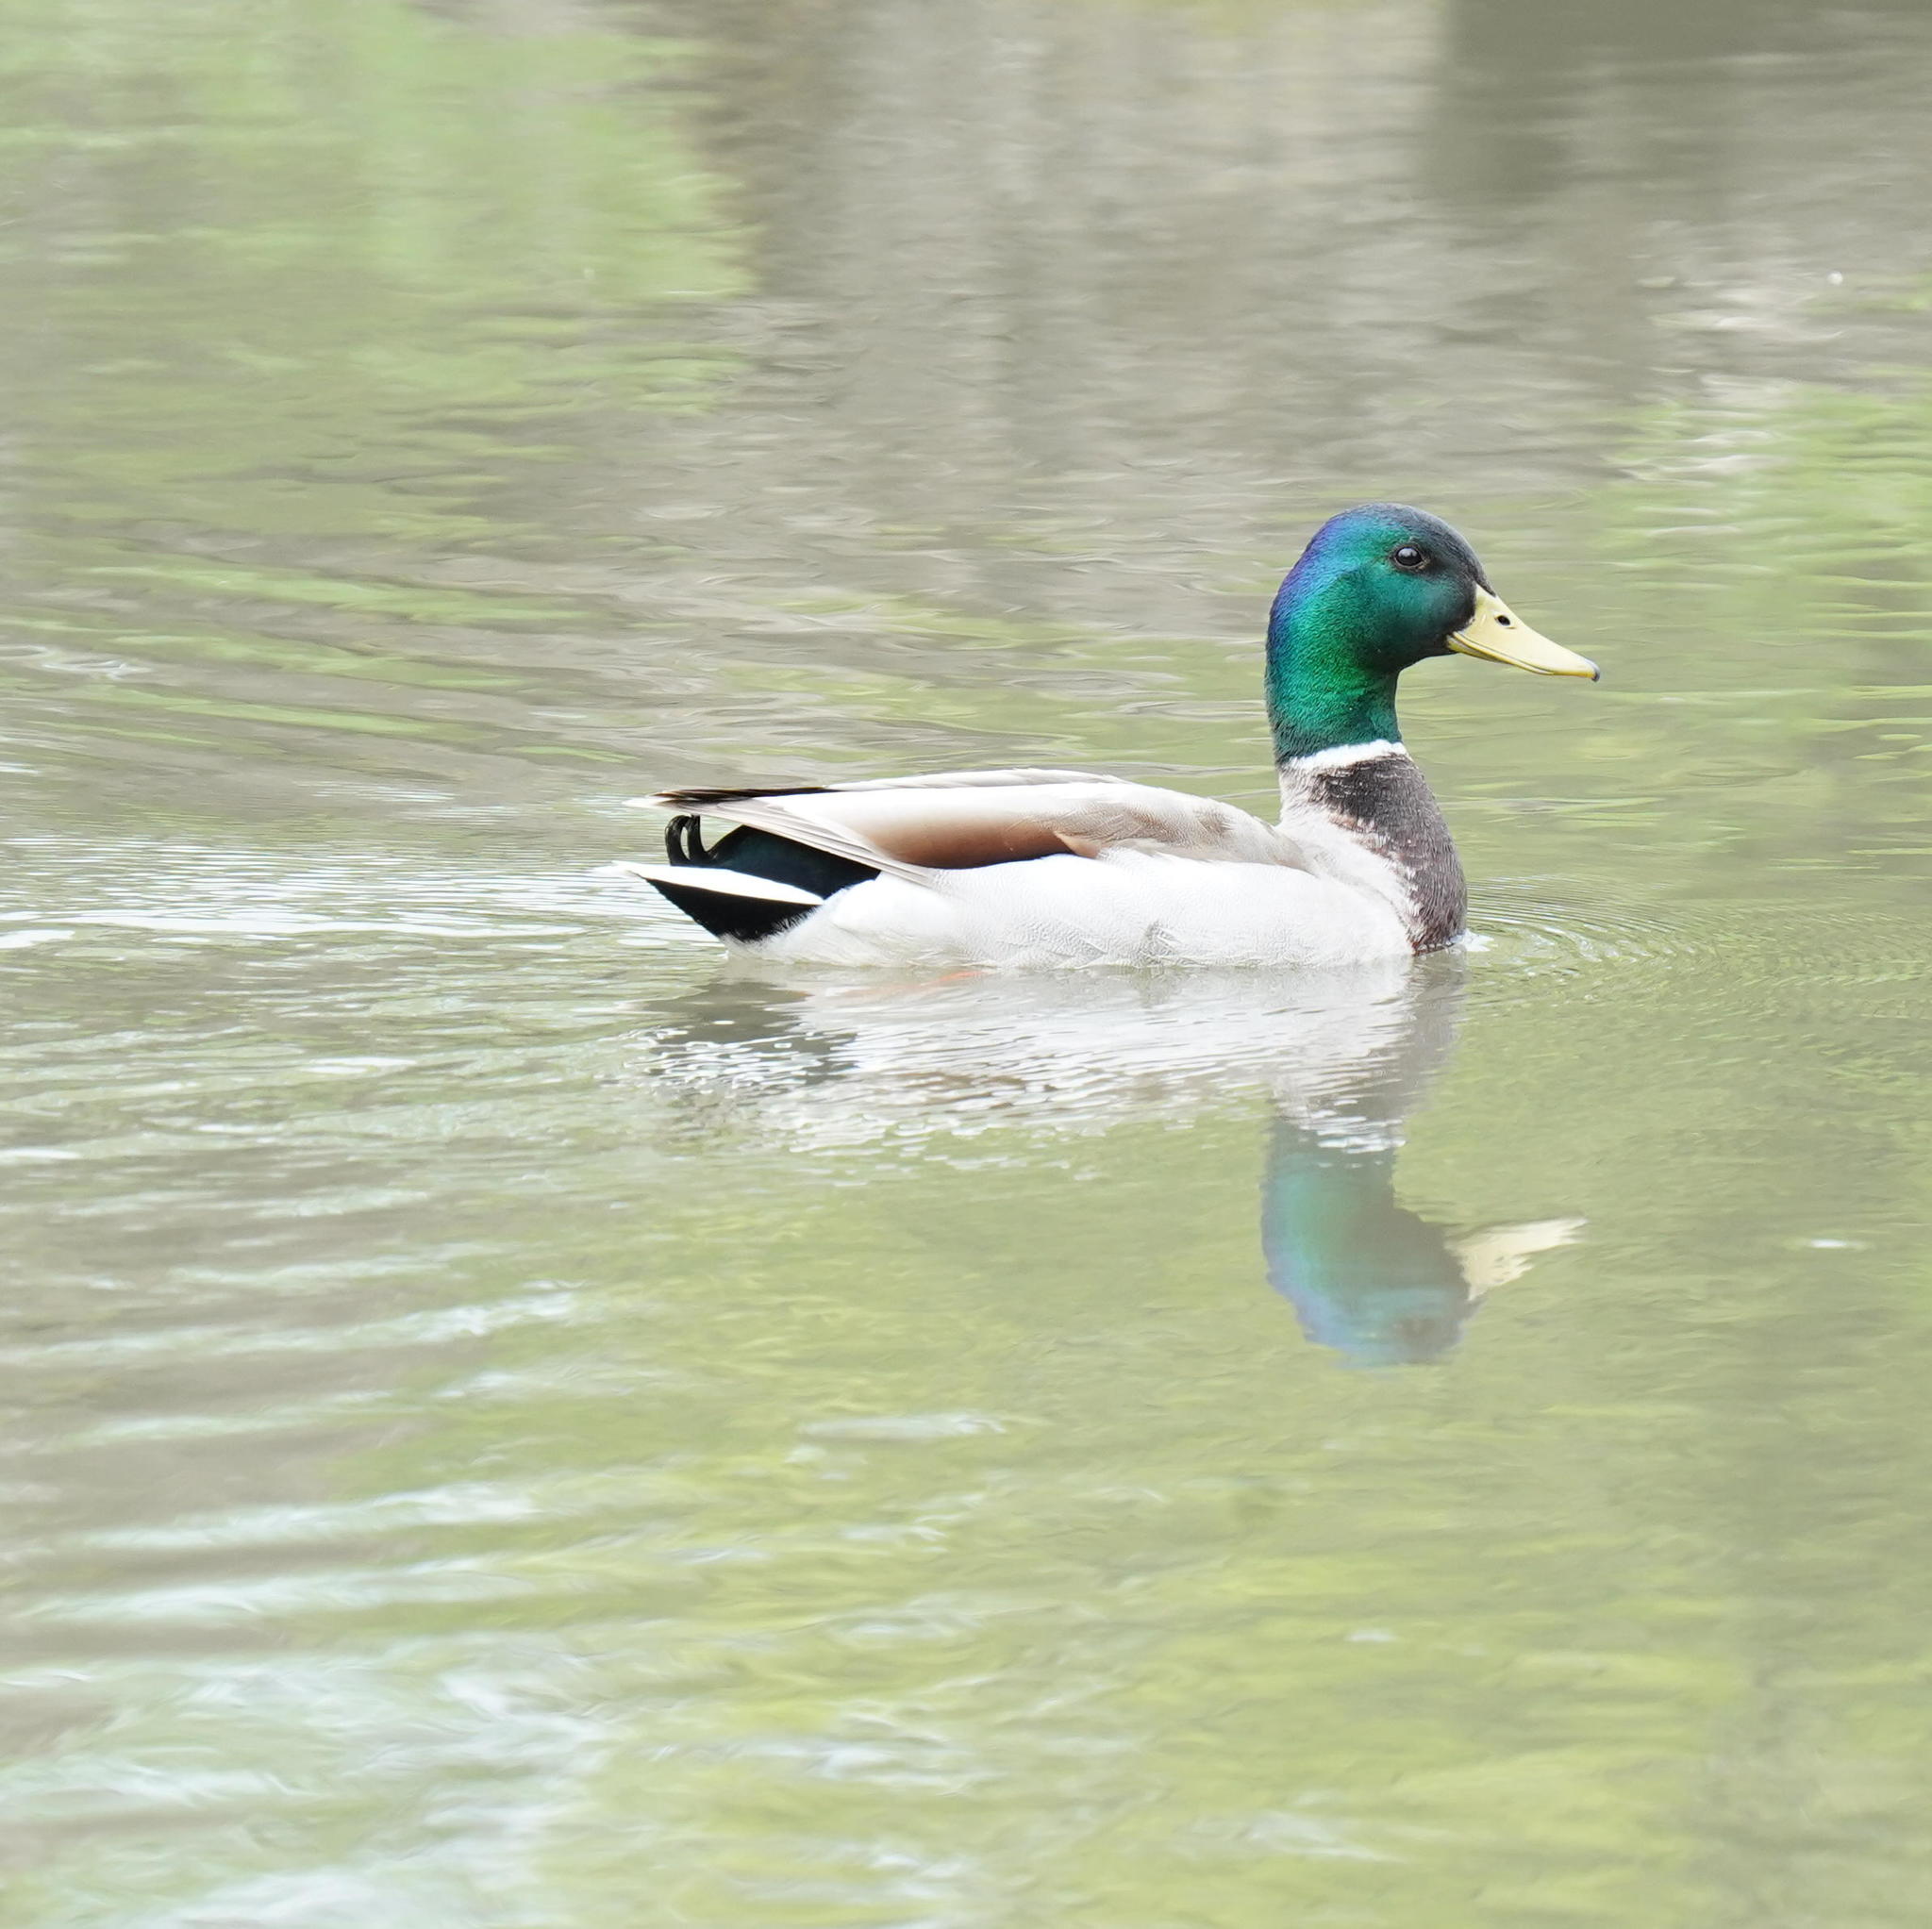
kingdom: Animalia
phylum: Chordata
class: Aves
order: Anseriformes
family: Anatidae
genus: Anas
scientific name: Anas platyrhynchos
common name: Mallard
